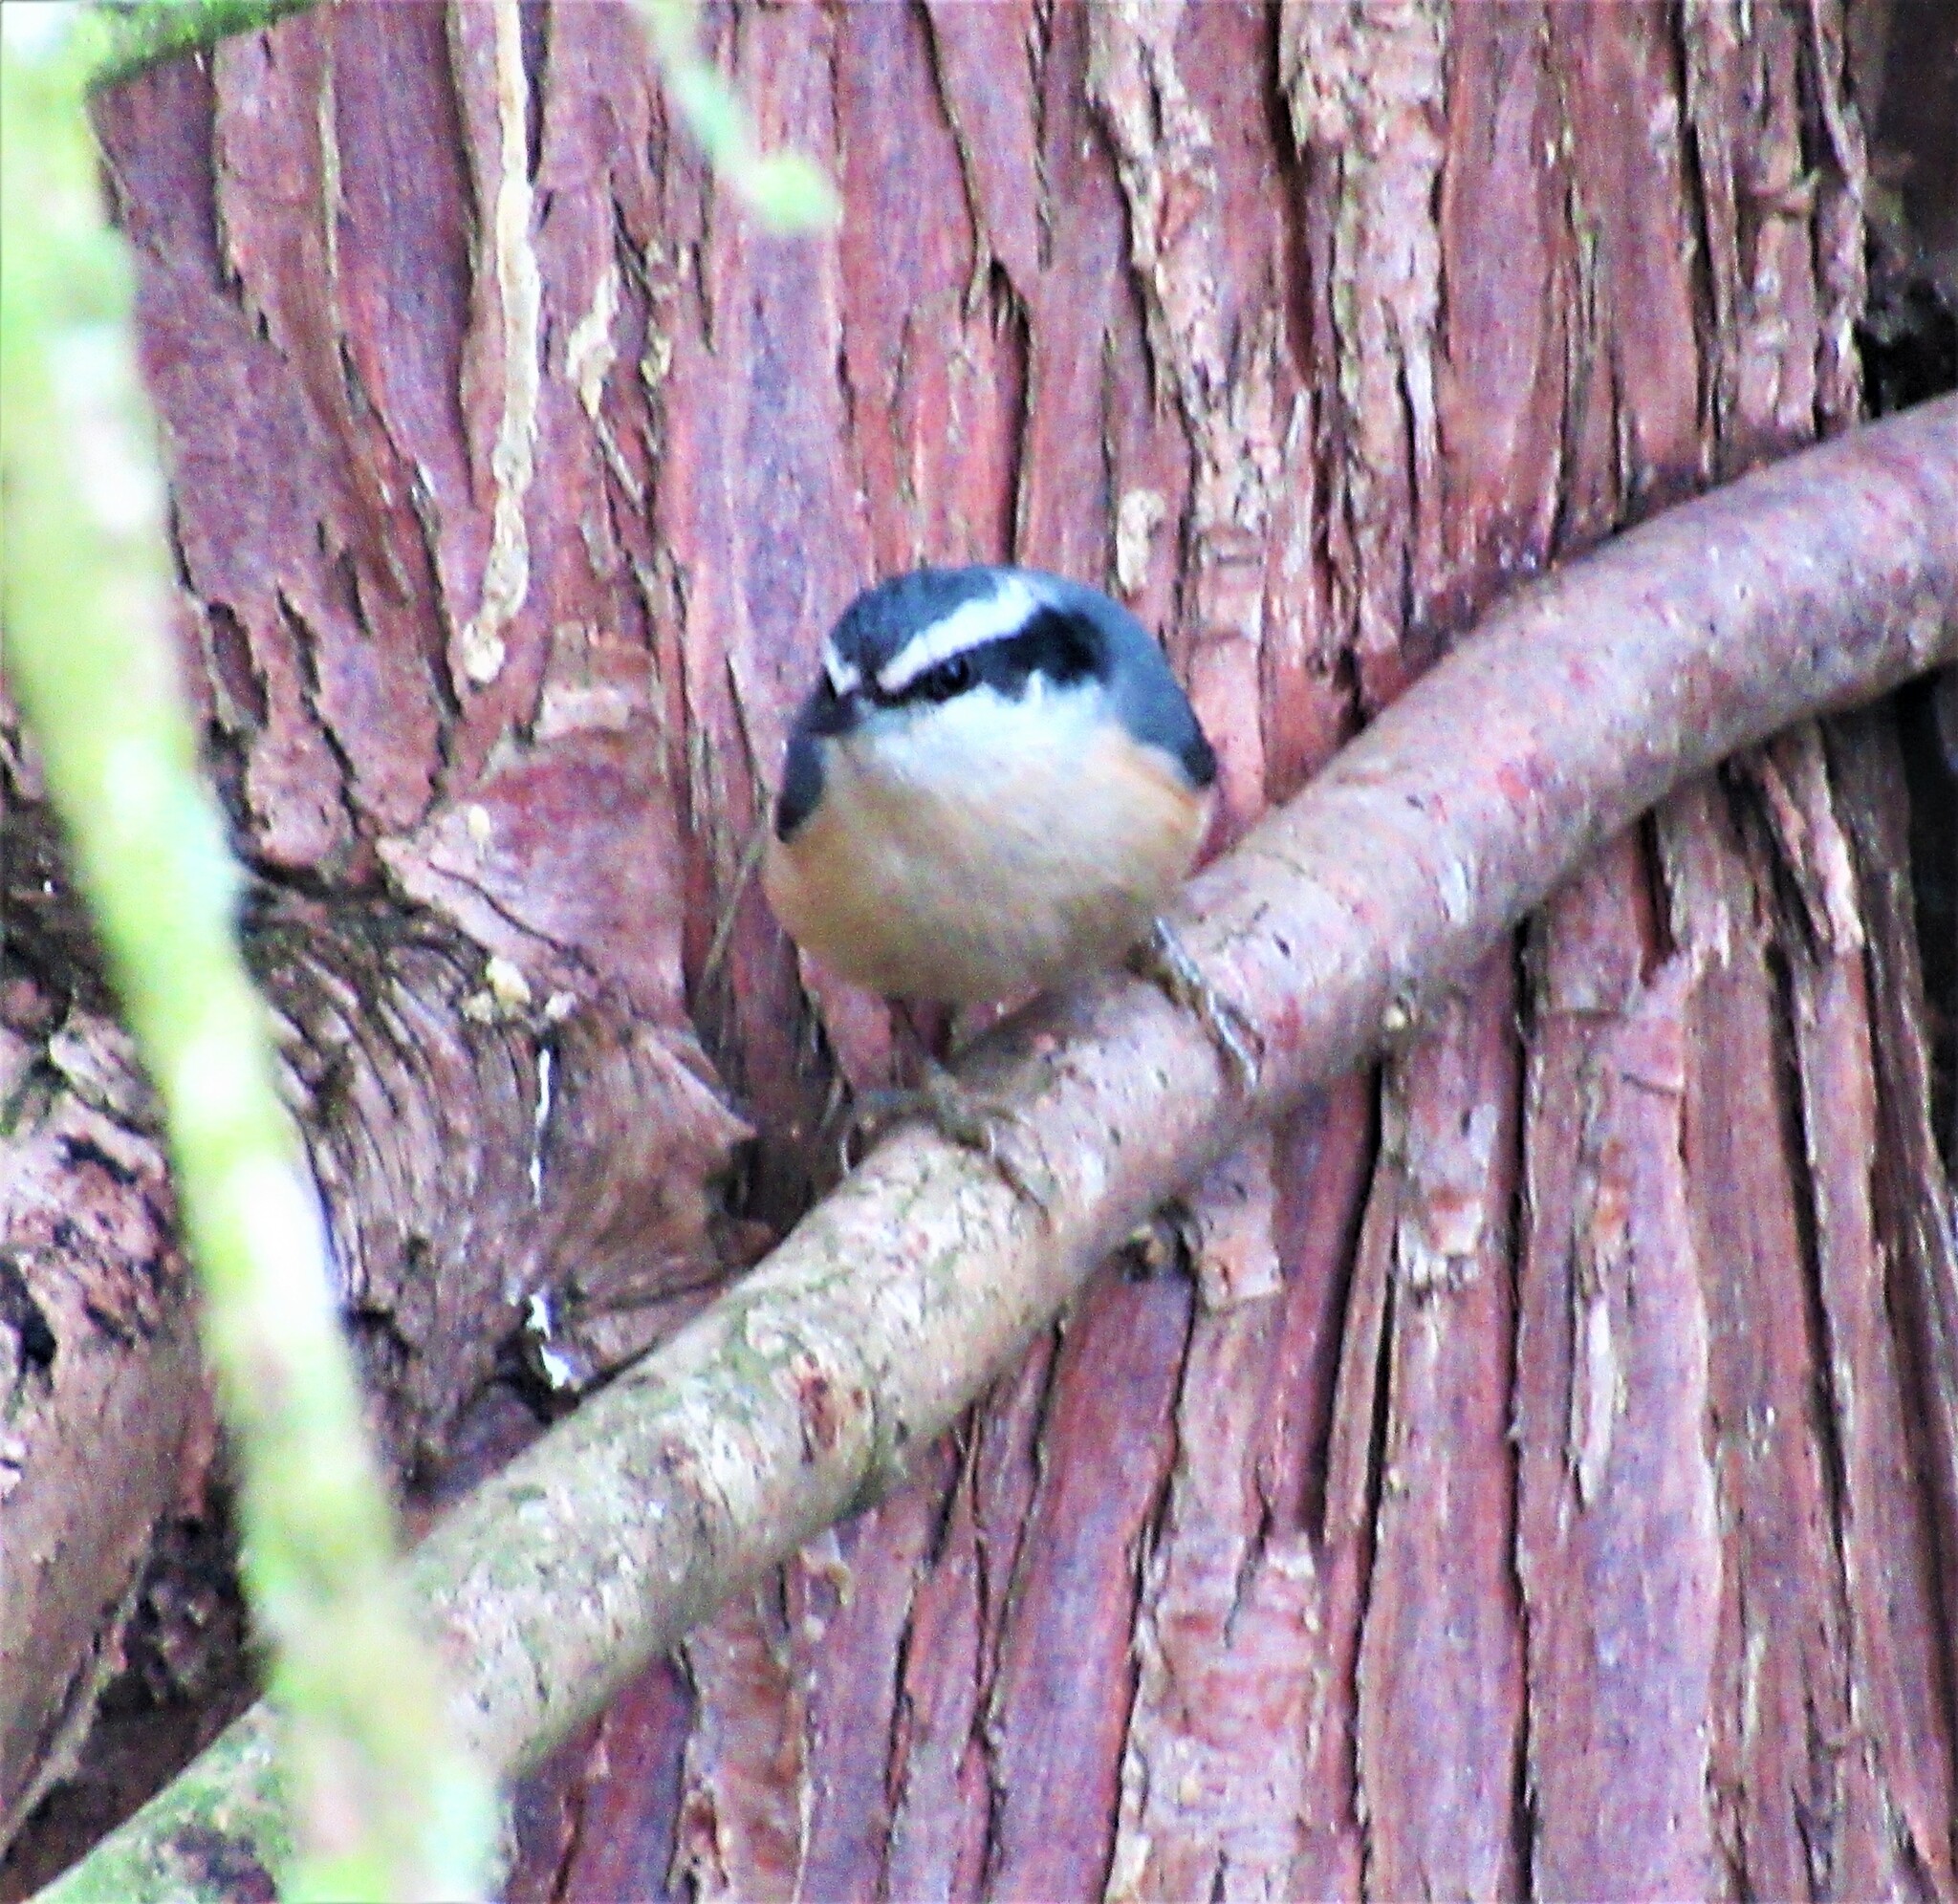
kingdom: Animalia
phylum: Chordata
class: Aves
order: Passeriformes
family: Sittidae
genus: Sitta
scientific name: Sitta canadensis
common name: Red-breasted nuthatch
